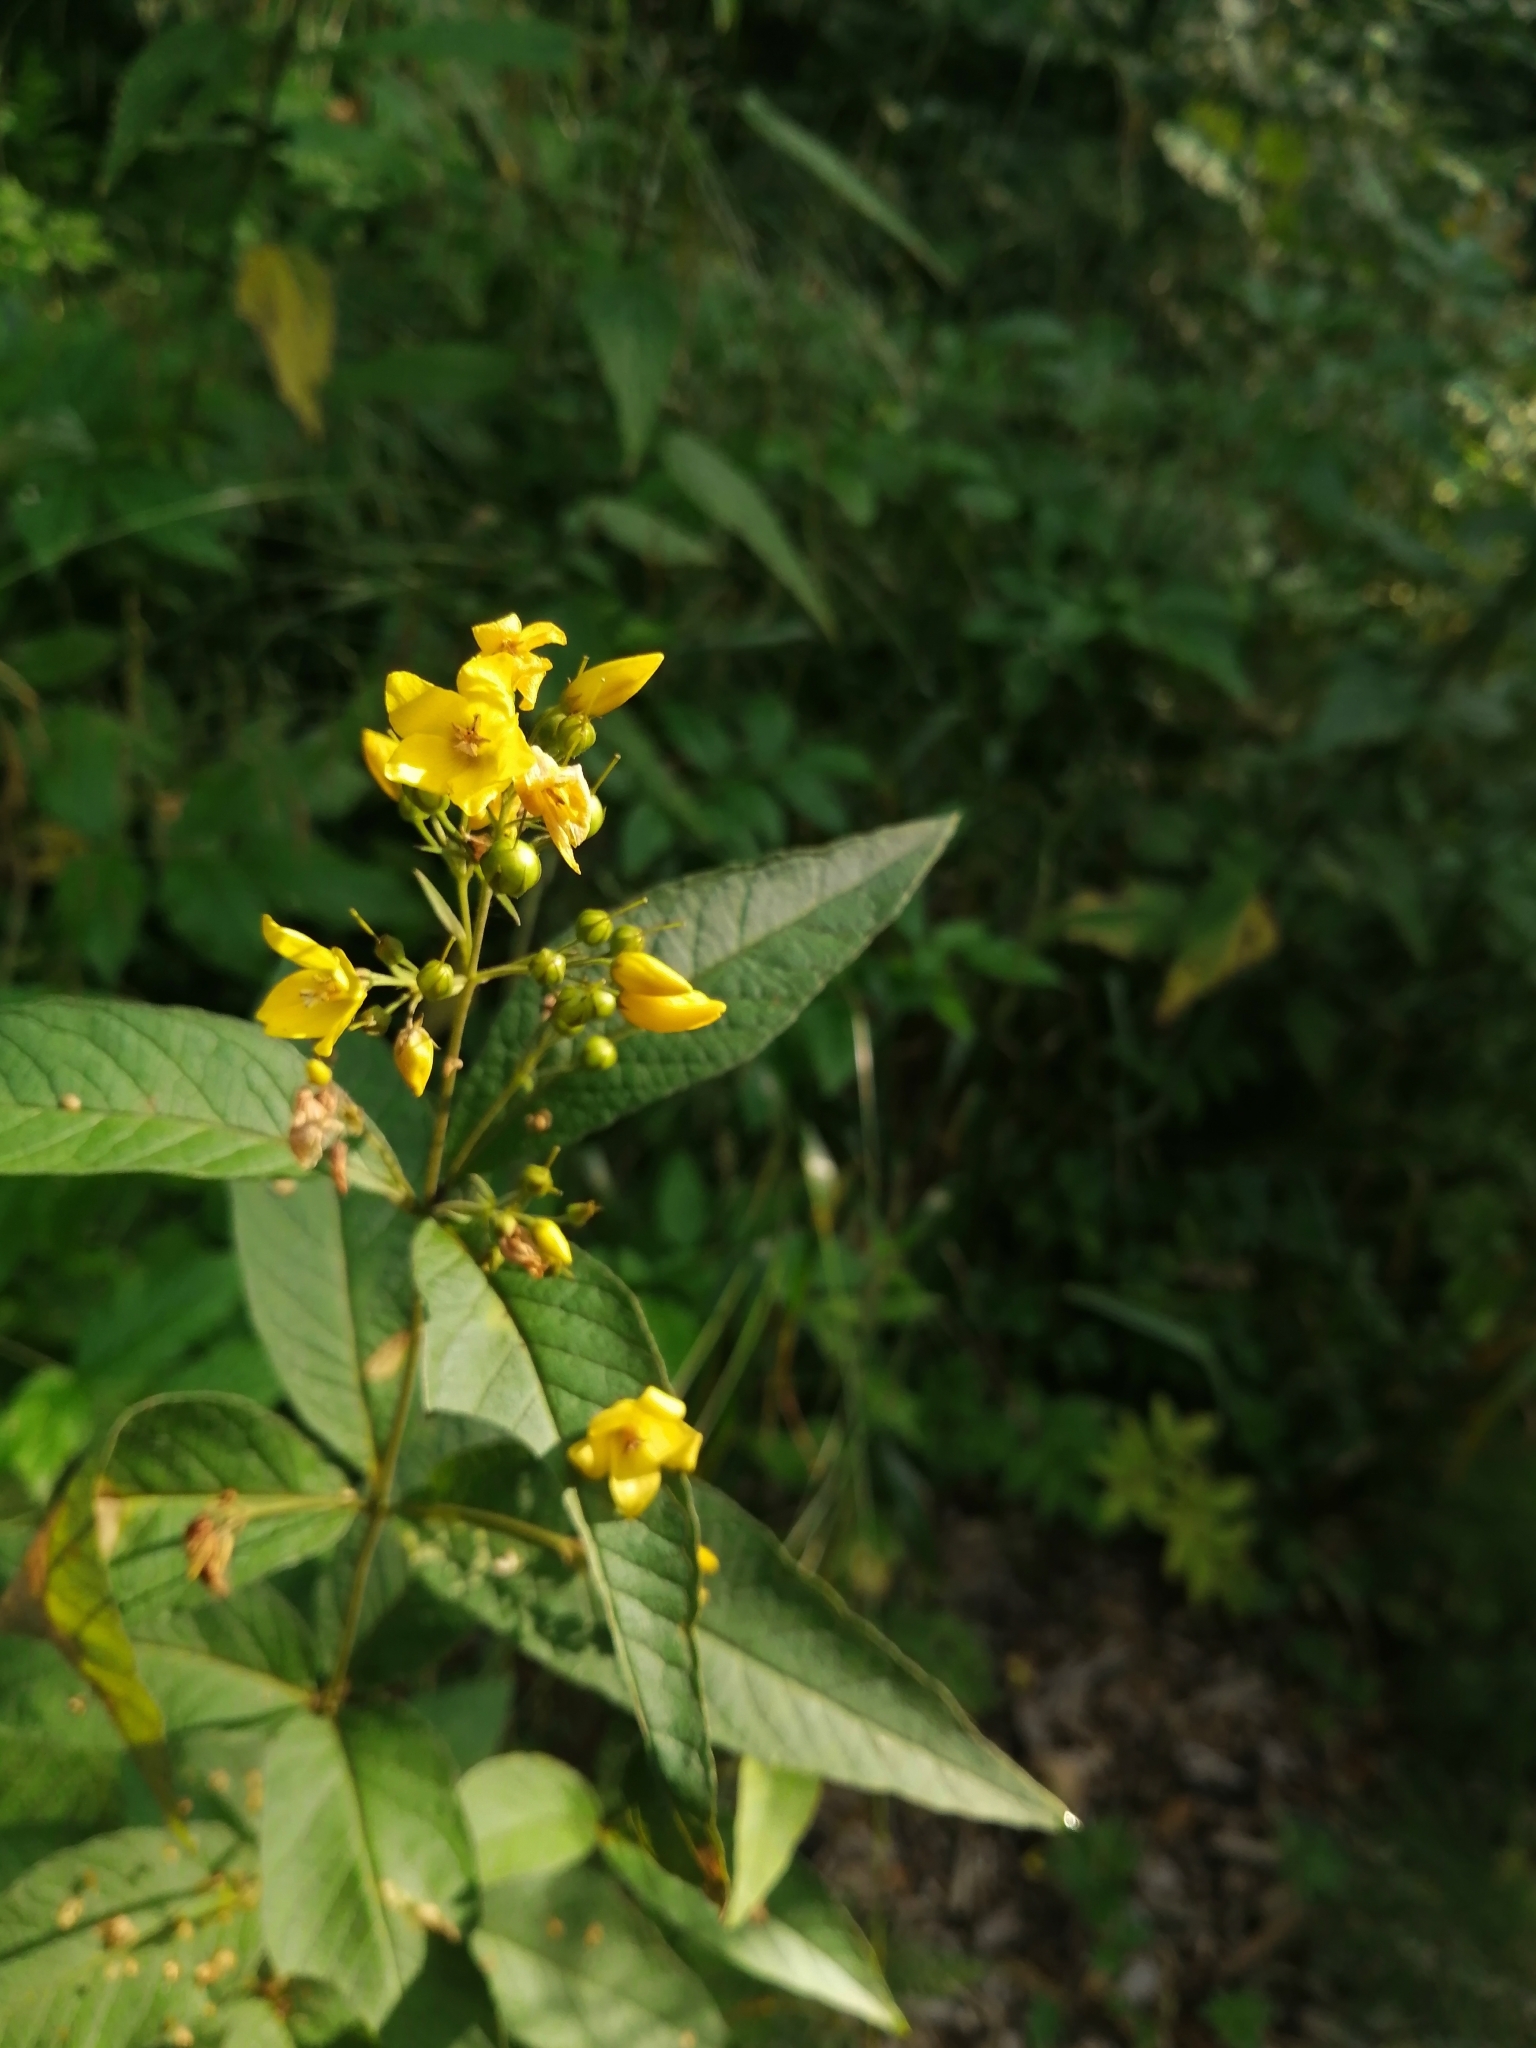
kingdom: Plantae
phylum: Tracheophyta
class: Magnoliopsida
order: Ericales
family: Primulaceae
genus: Lysimachia
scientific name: Lysimachia vulgaris
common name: Yellow loosestrife
